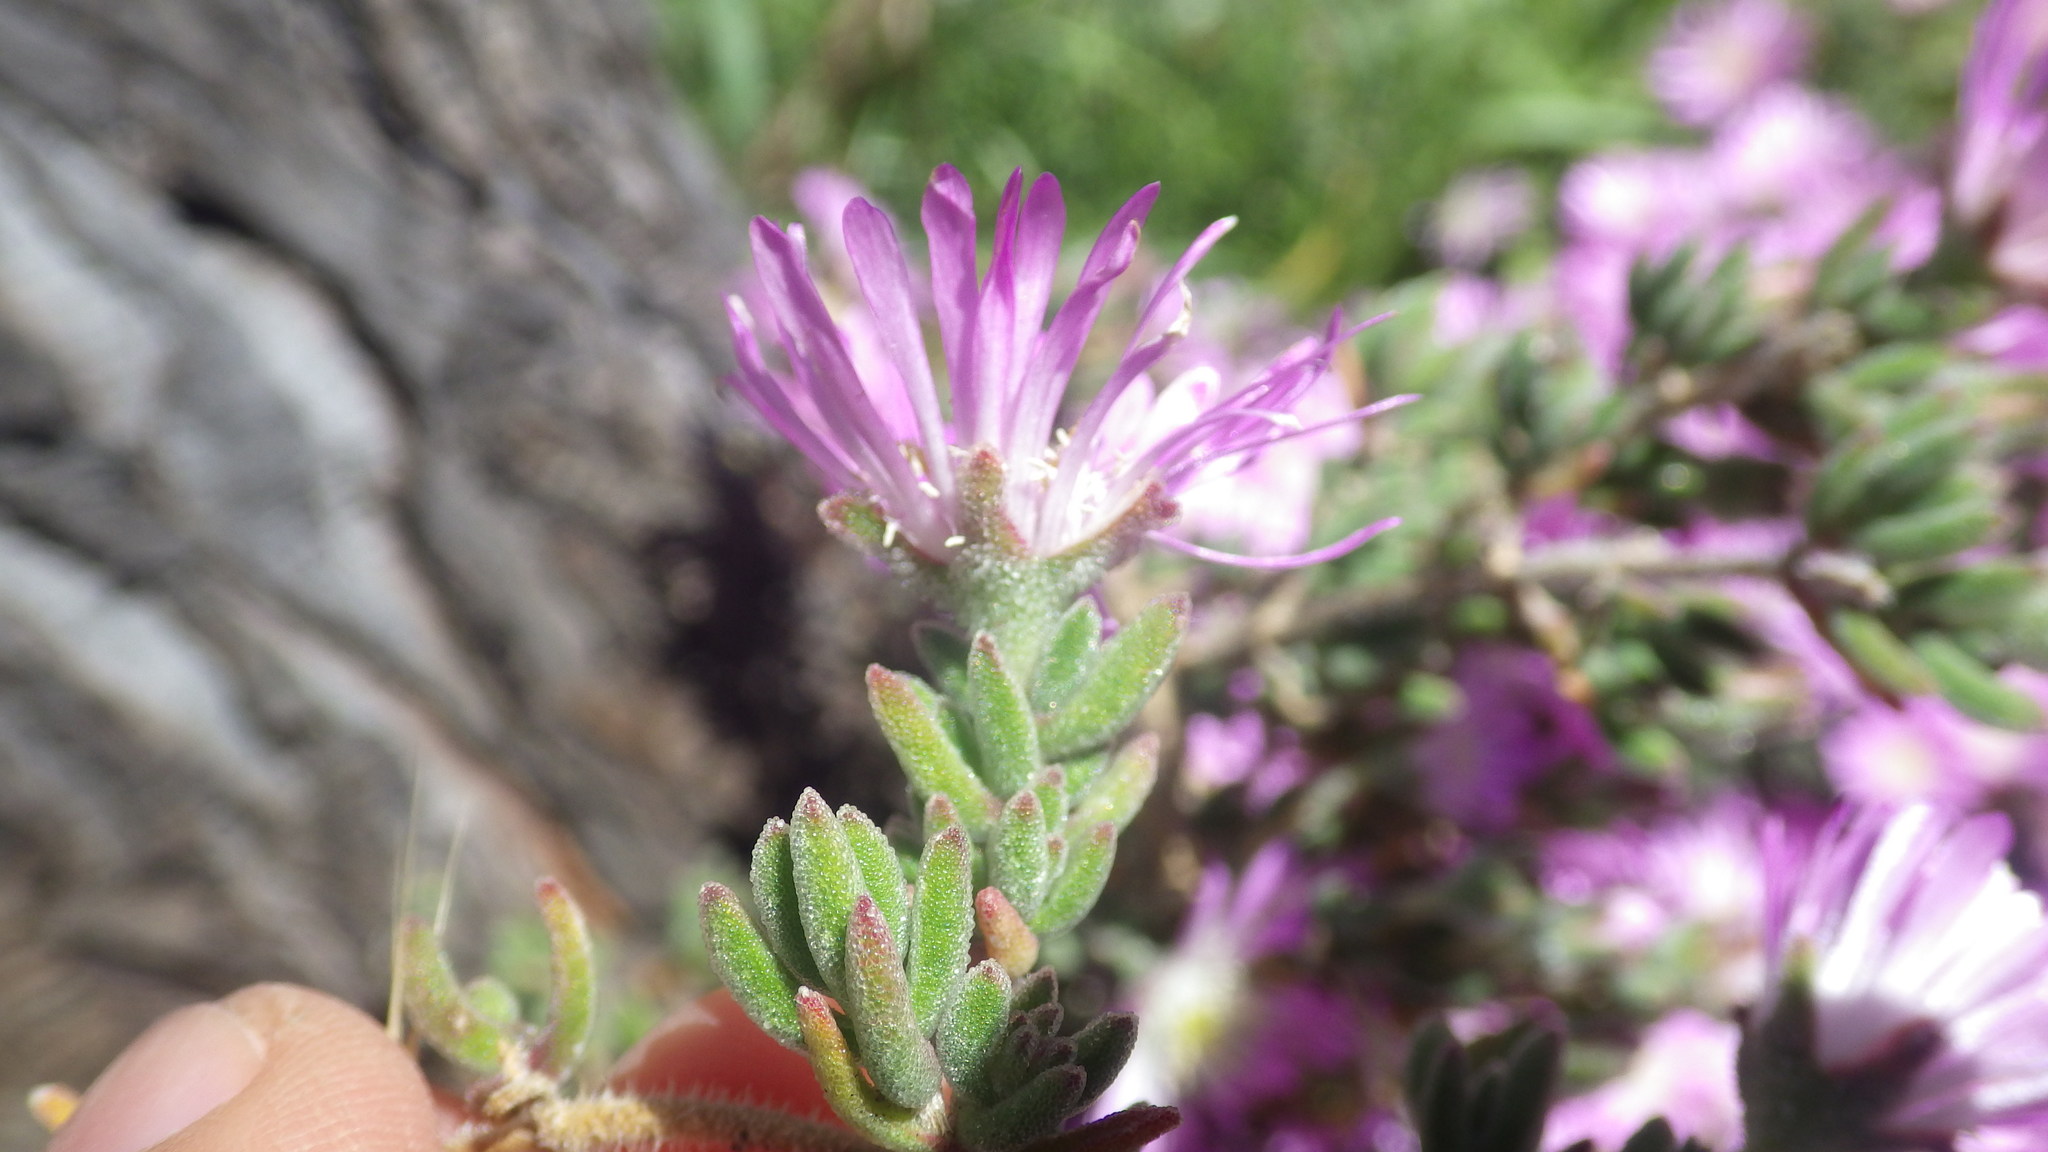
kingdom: Plantae
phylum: Tracheophyta
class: Magnoliopsida
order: Caryophyllales
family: Aizoaceae
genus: Drosanthemum
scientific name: Drosanthemum floribundum
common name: Pale dewplant
